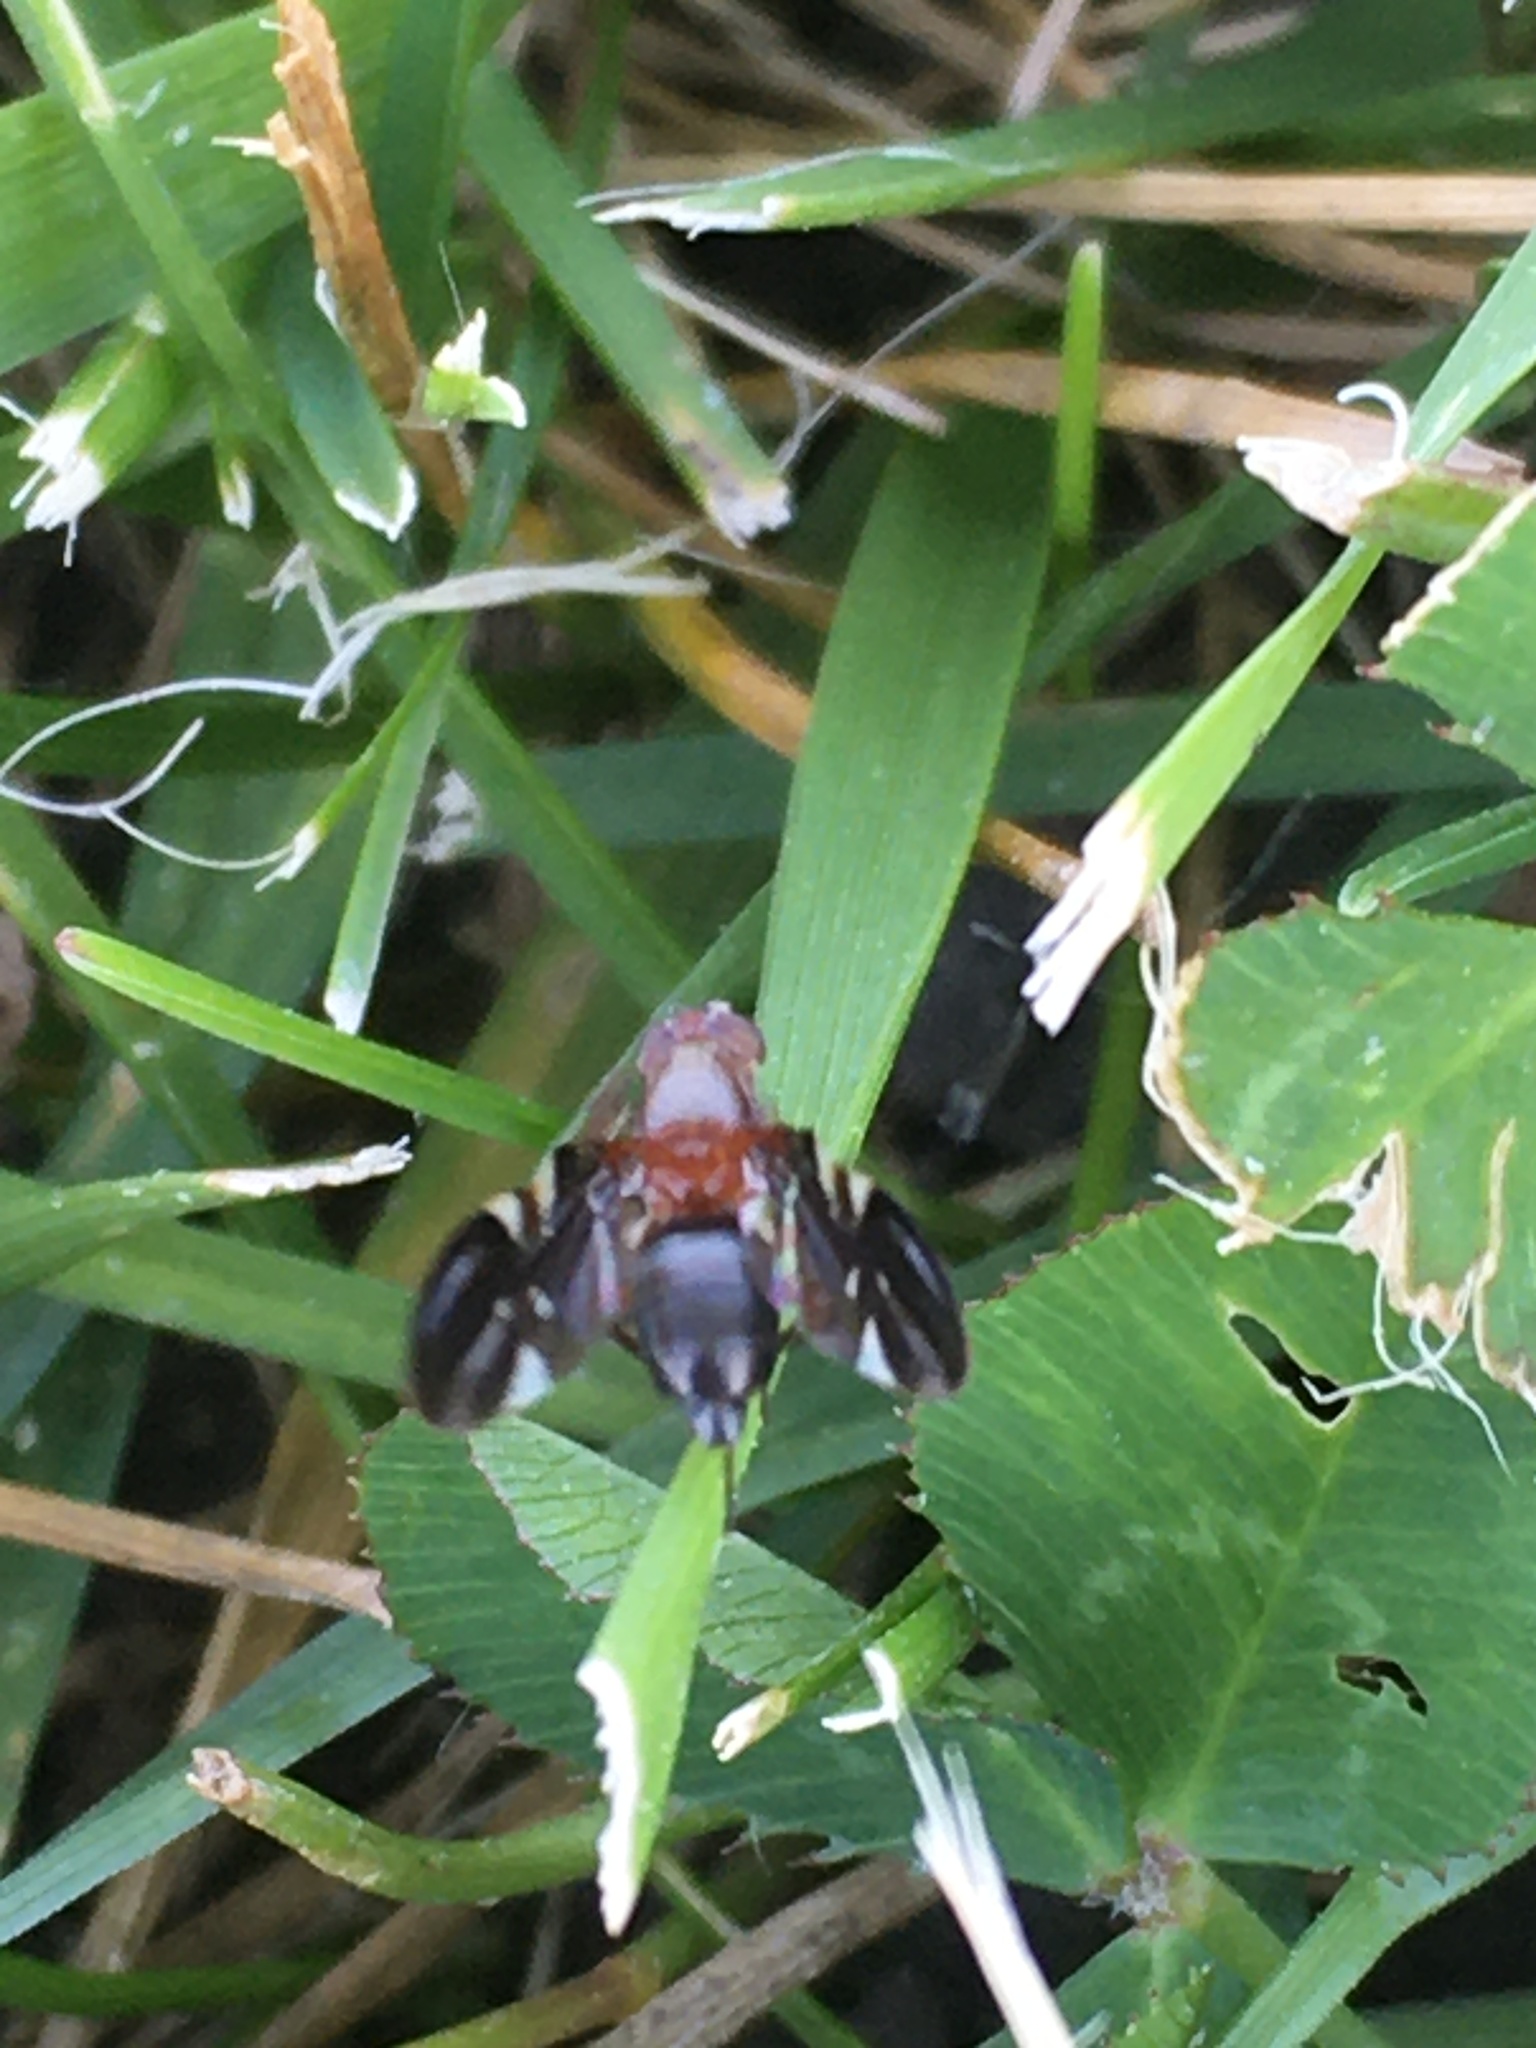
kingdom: Animalia
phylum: Arthropoda
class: Insecta
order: Diptera
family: Ulidiidae
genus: Delphinia
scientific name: Delphinia picta
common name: Common picture-winged fly
